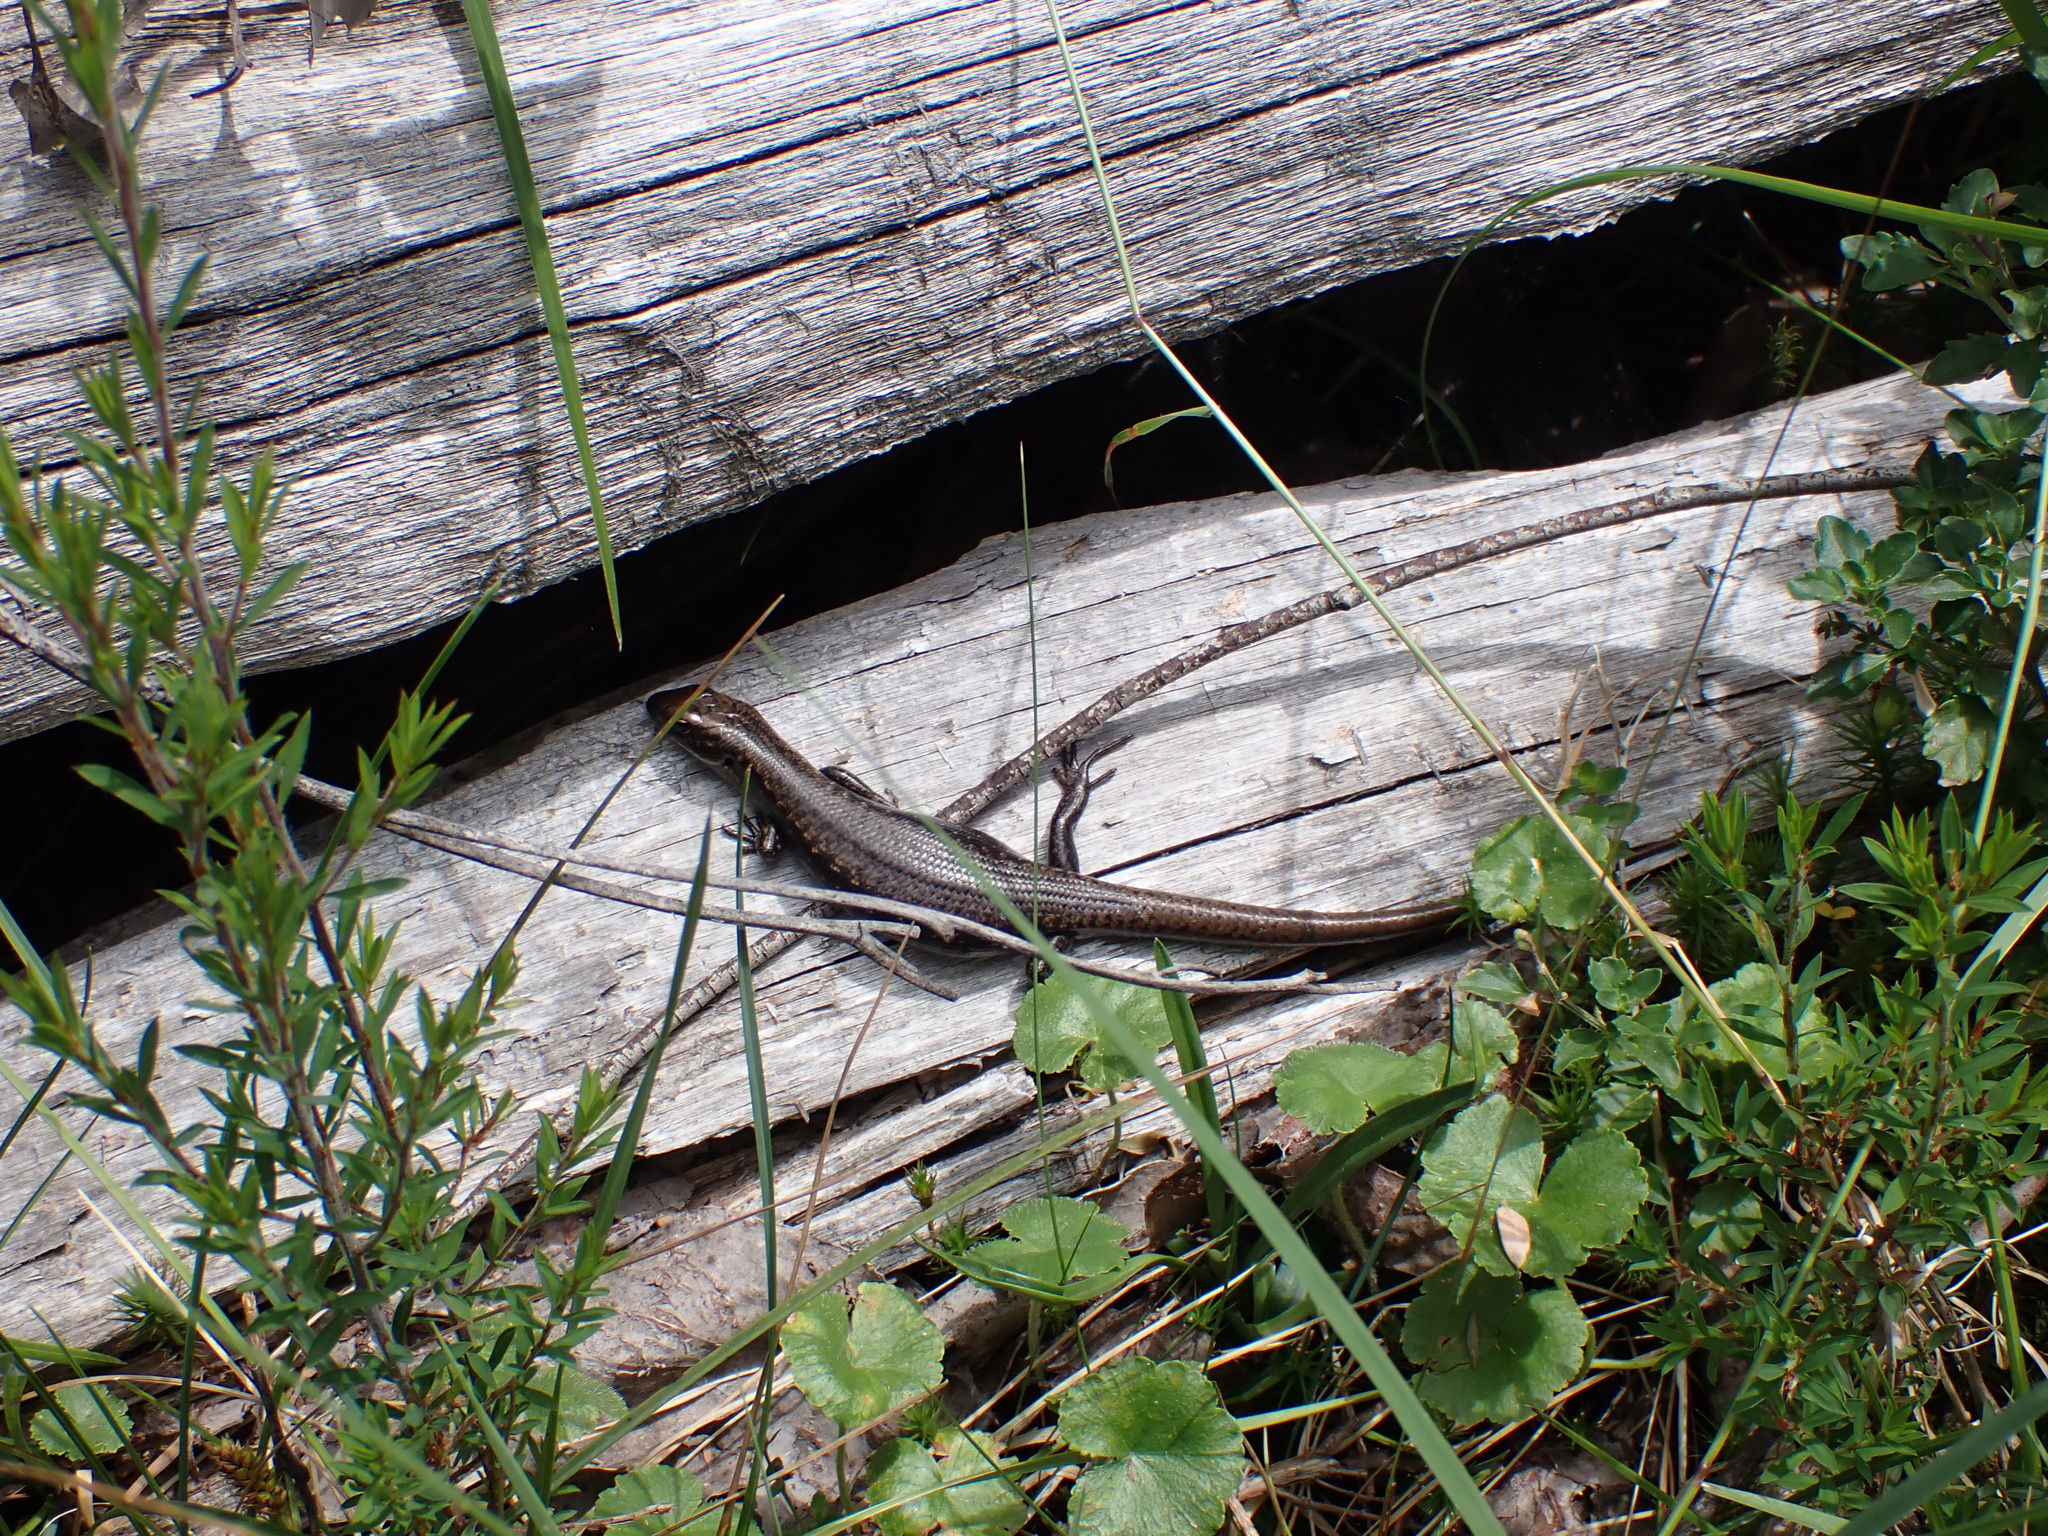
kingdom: Animalia
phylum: Chordata
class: Squamata
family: Scincidae
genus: Eulamprus
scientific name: Eulamprus tympanum
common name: Cool-temperate water-skink
